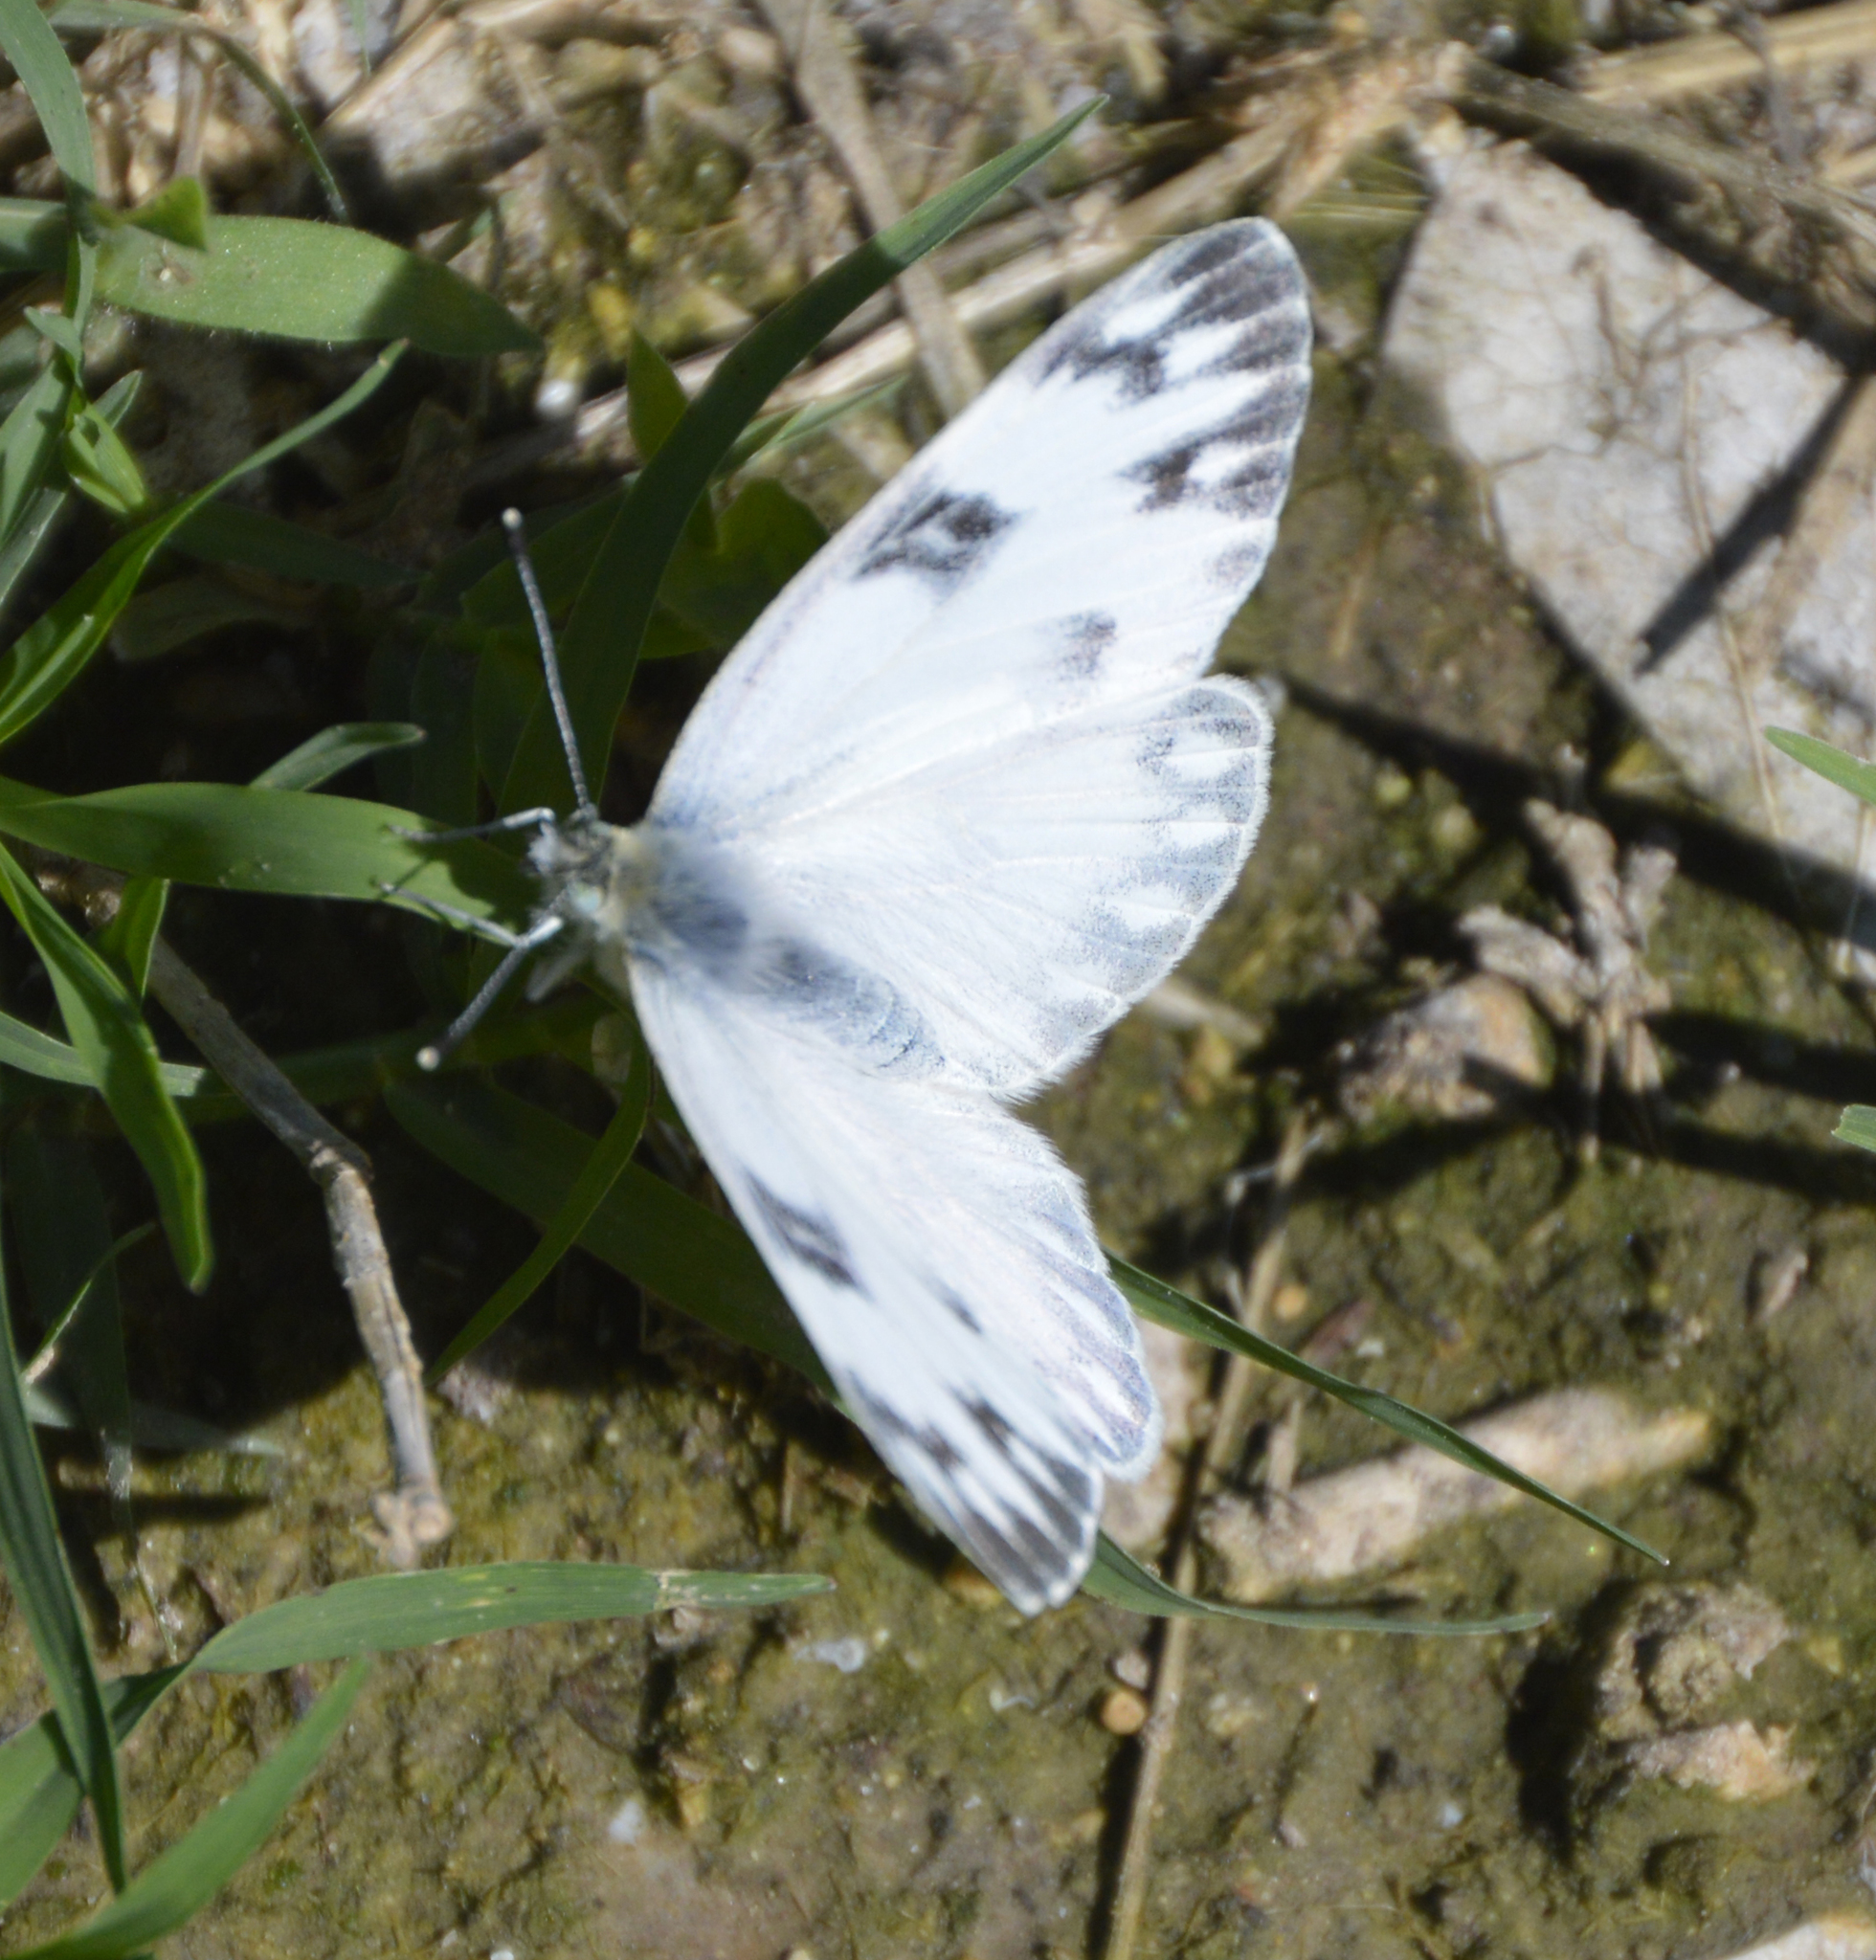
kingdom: Animalia
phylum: Arthropoda
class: Insecta
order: Lepidoptera
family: Pieridae
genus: Pontia
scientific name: Pontia protodice
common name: Checkered white
